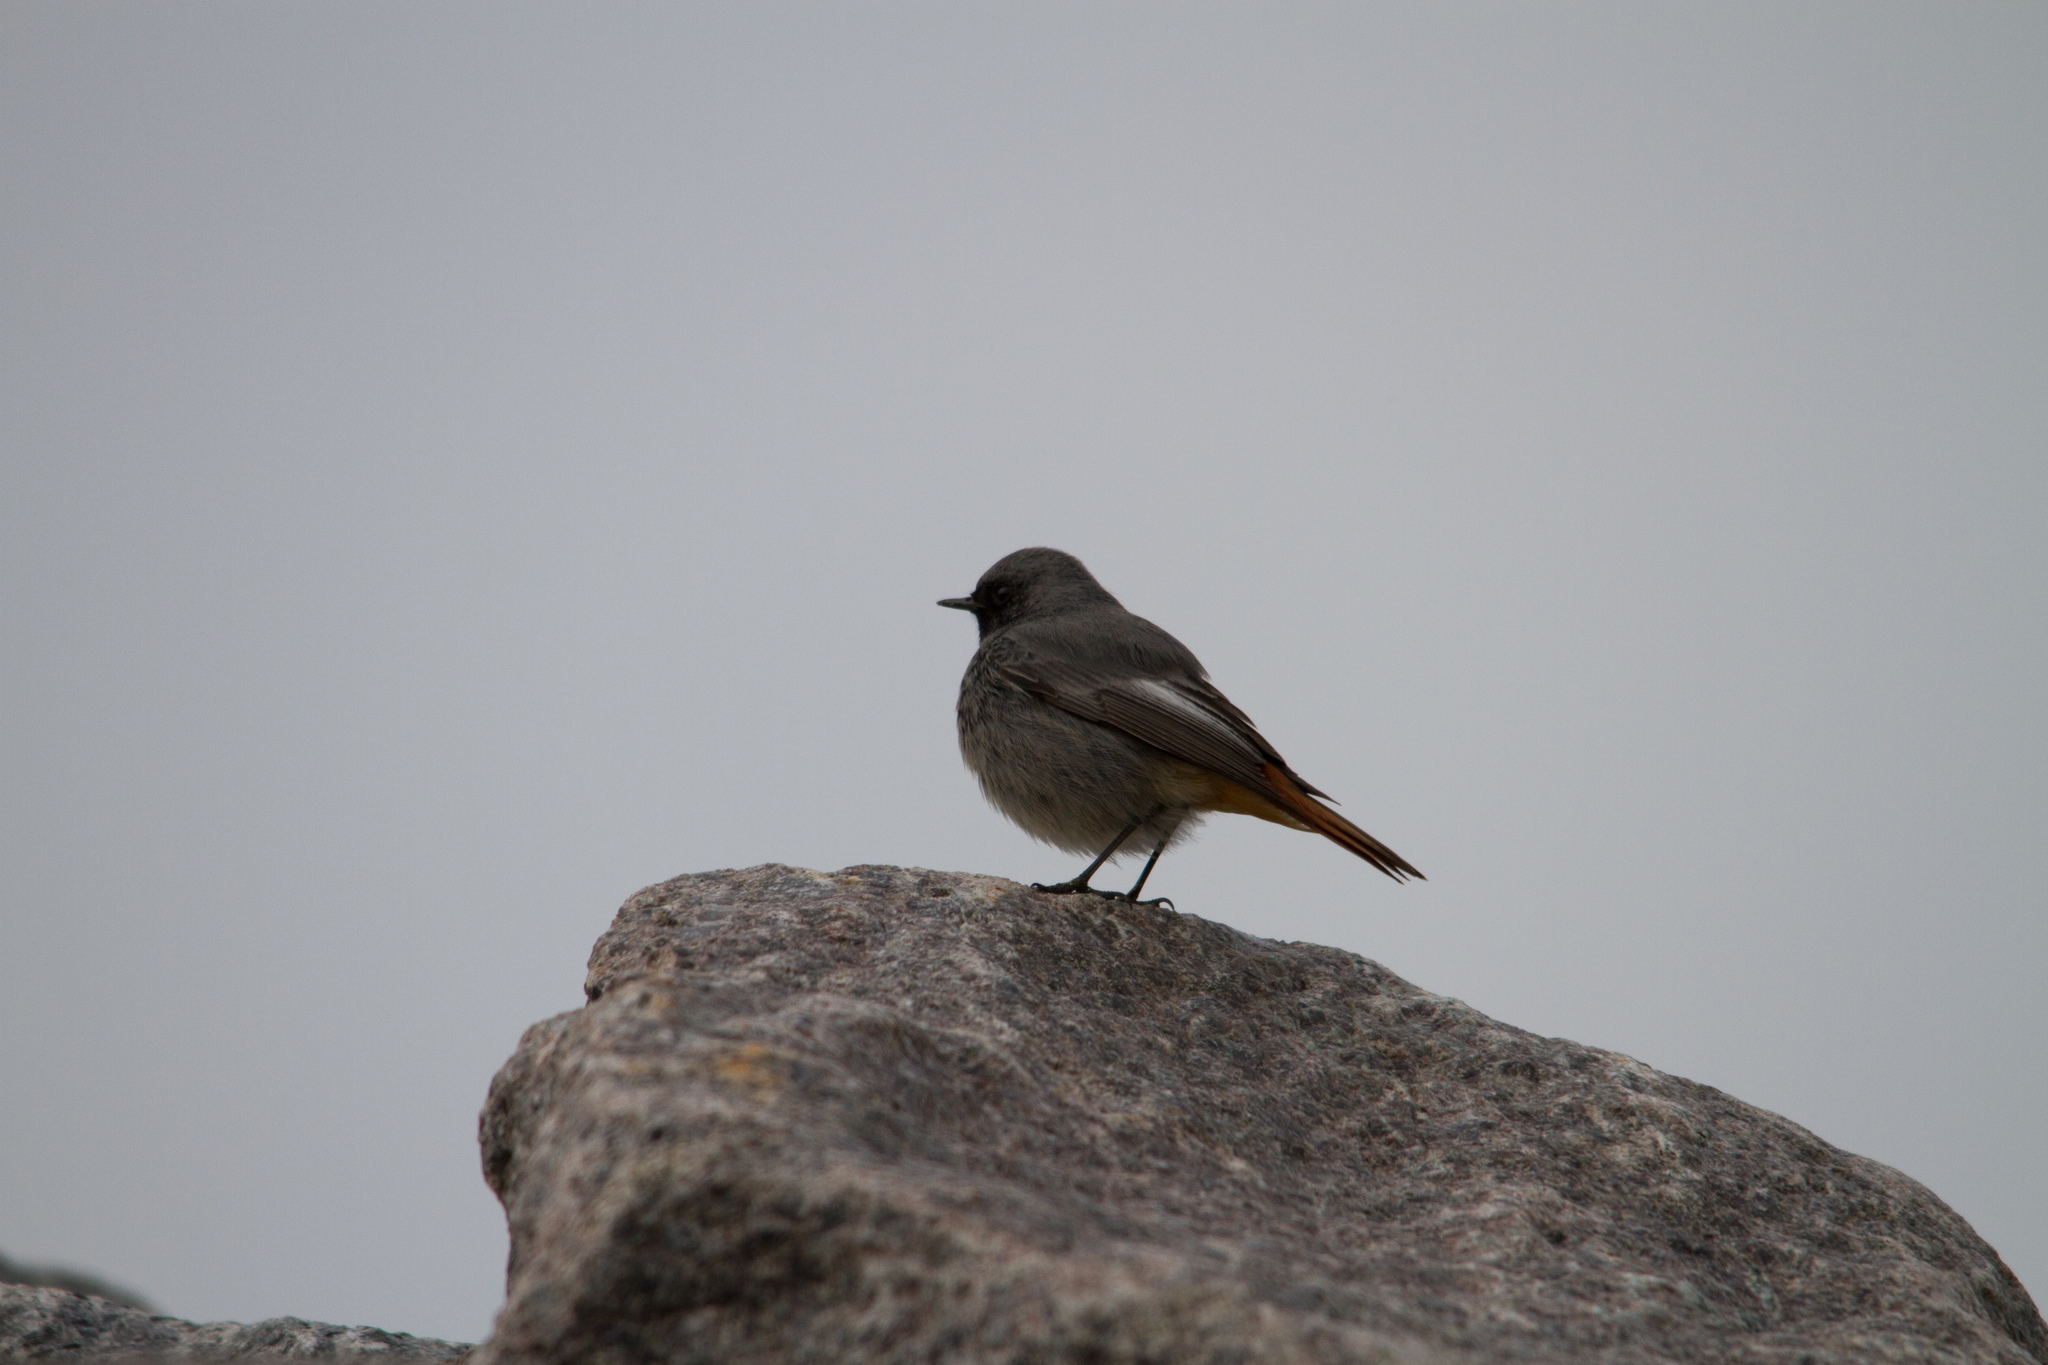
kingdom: Animalia
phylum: Chordata
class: Aves
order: Passeriformes
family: Muscicapidae
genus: Phoenicurus
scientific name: Phoenicurus ochruros
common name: Black redstart
